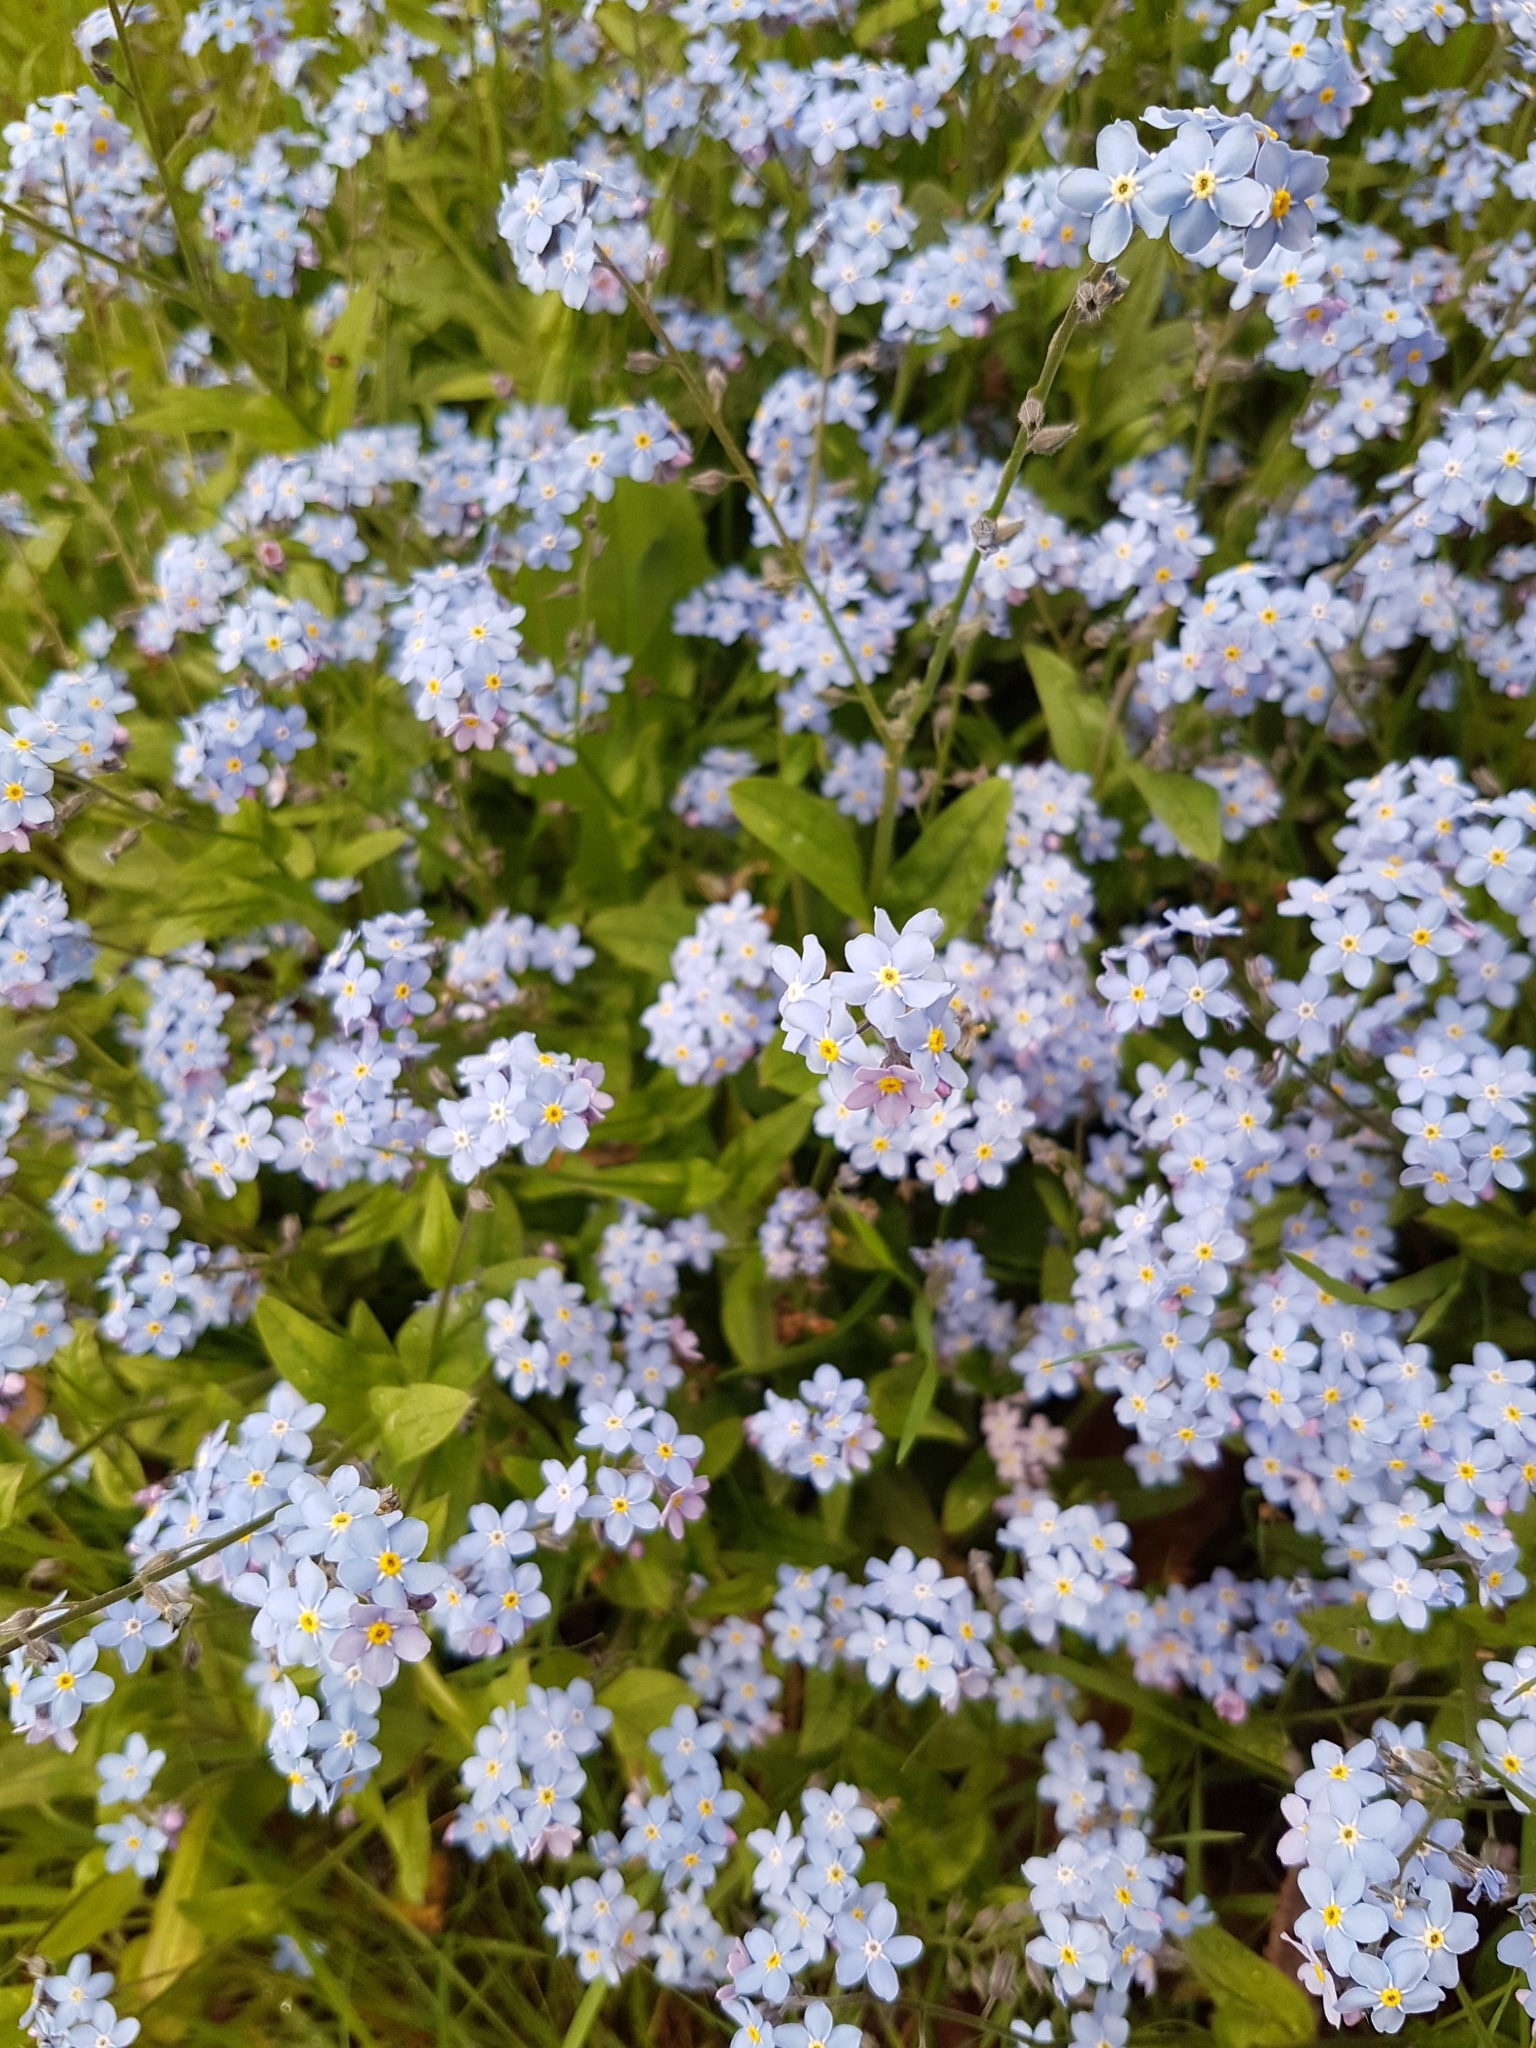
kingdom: Plantae
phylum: Tracheophyta
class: Magnoliopsida
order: Boraginales
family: Boraginaceae
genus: Myosotis
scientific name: Myosotis sylvatica
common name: Wood forget-me-not
